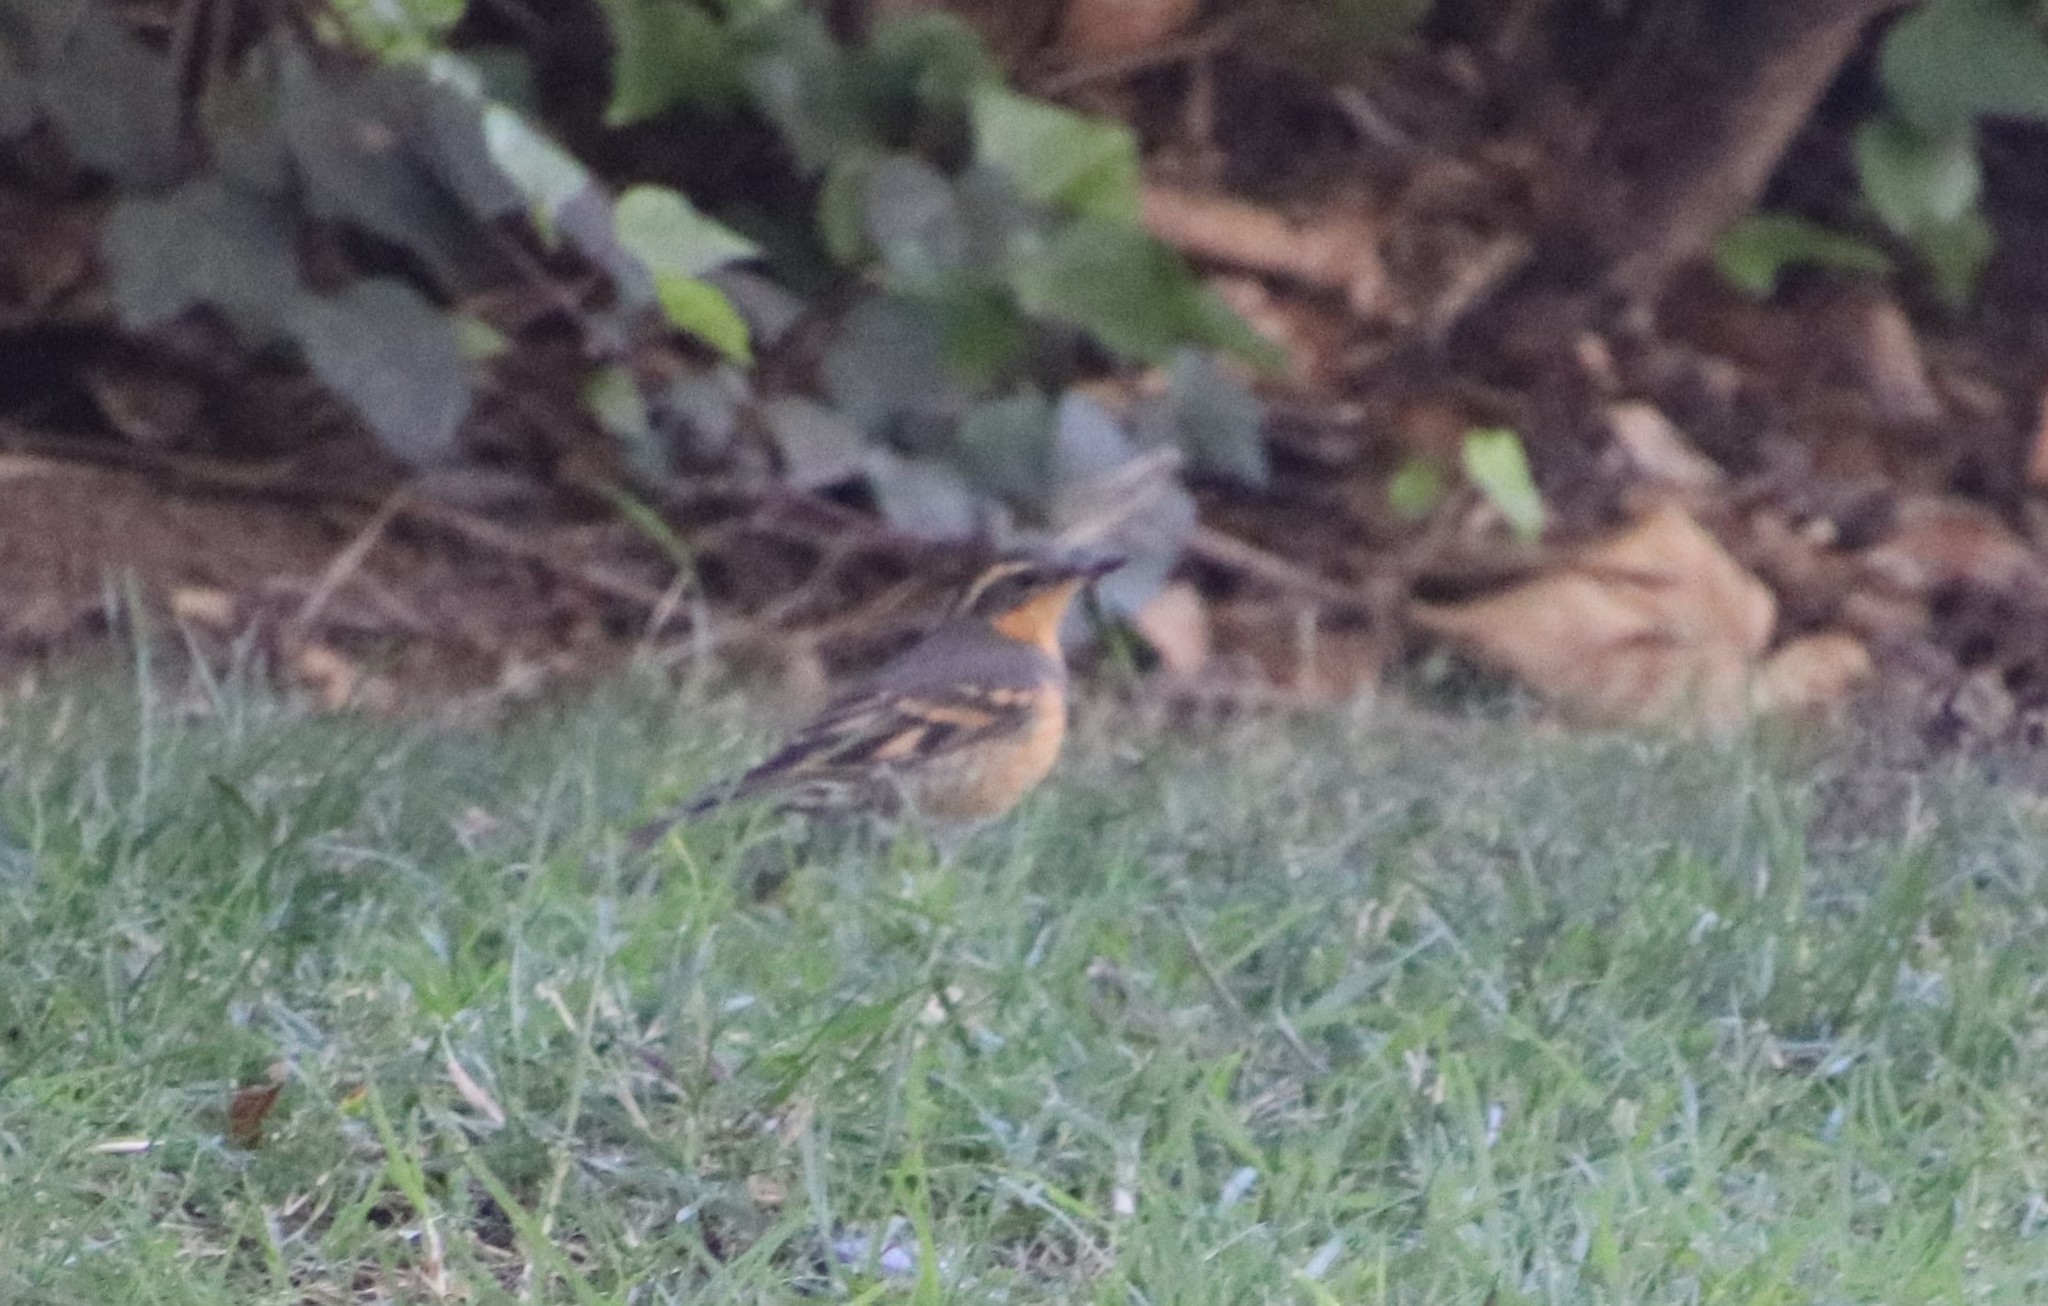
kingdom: Animalia
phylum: Chordata
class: Aves
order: Passeriformes
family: Turdidae
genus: Ixoreus
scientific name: Ixoreus naevius
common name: Varied thrush
